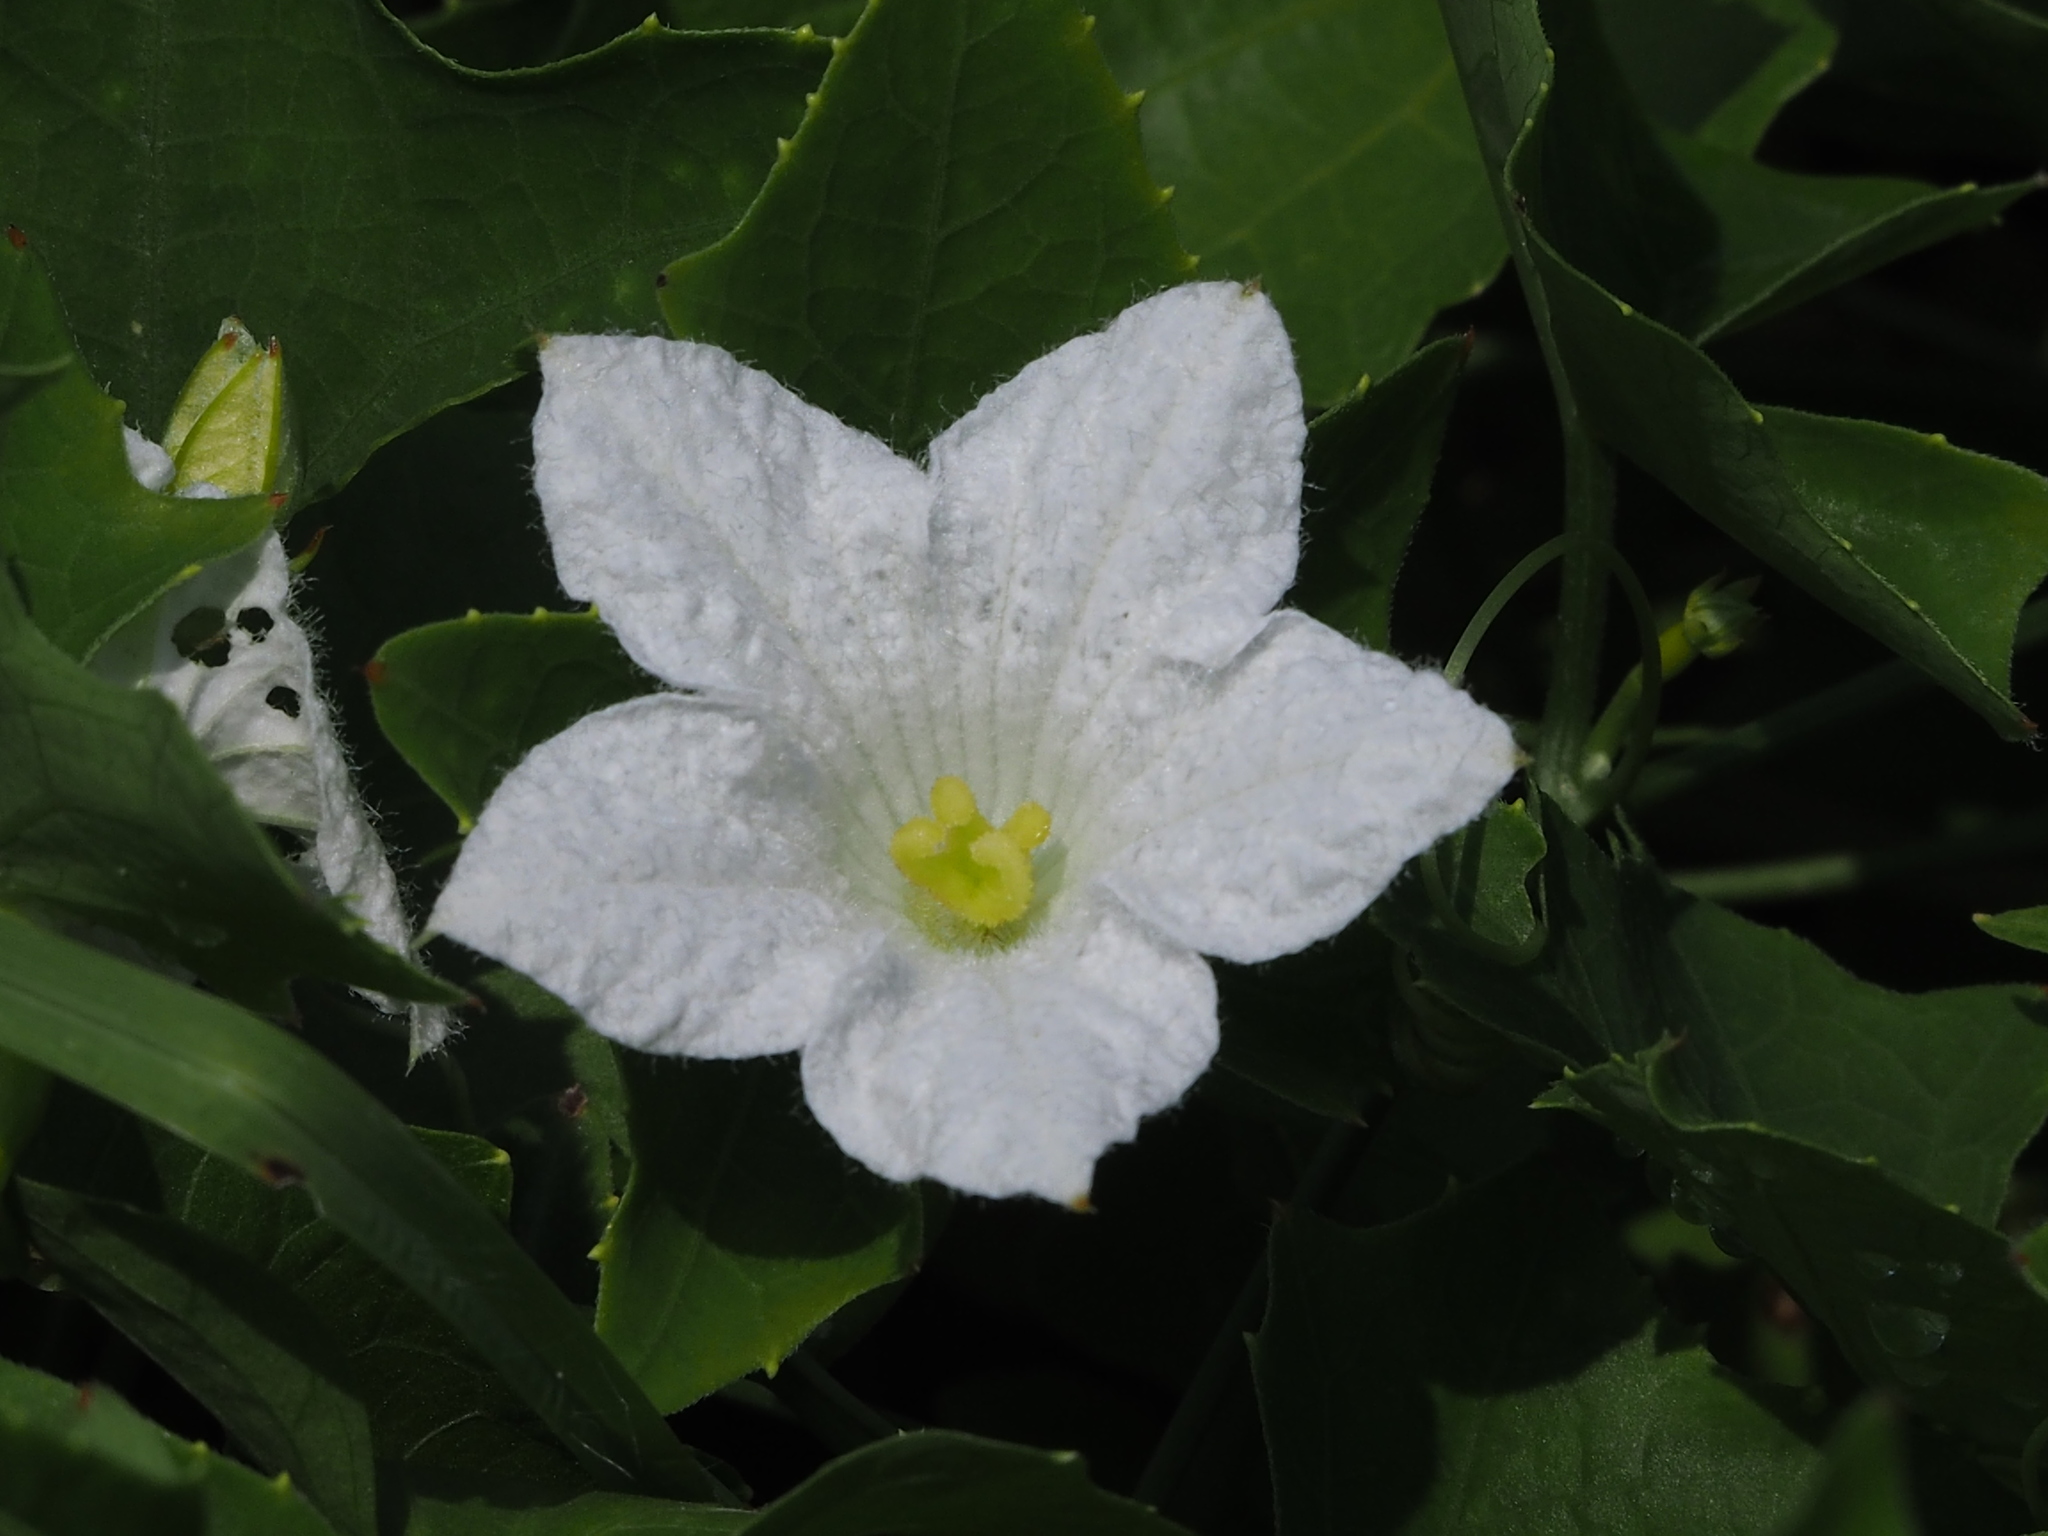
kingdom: Plantae
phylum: Tracheophyta
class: Magnoliopsida
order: Cucurbitales
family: Cucurbitaceae
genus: Coccinia
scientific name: Coccinia grandis
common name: Ivy gourd
